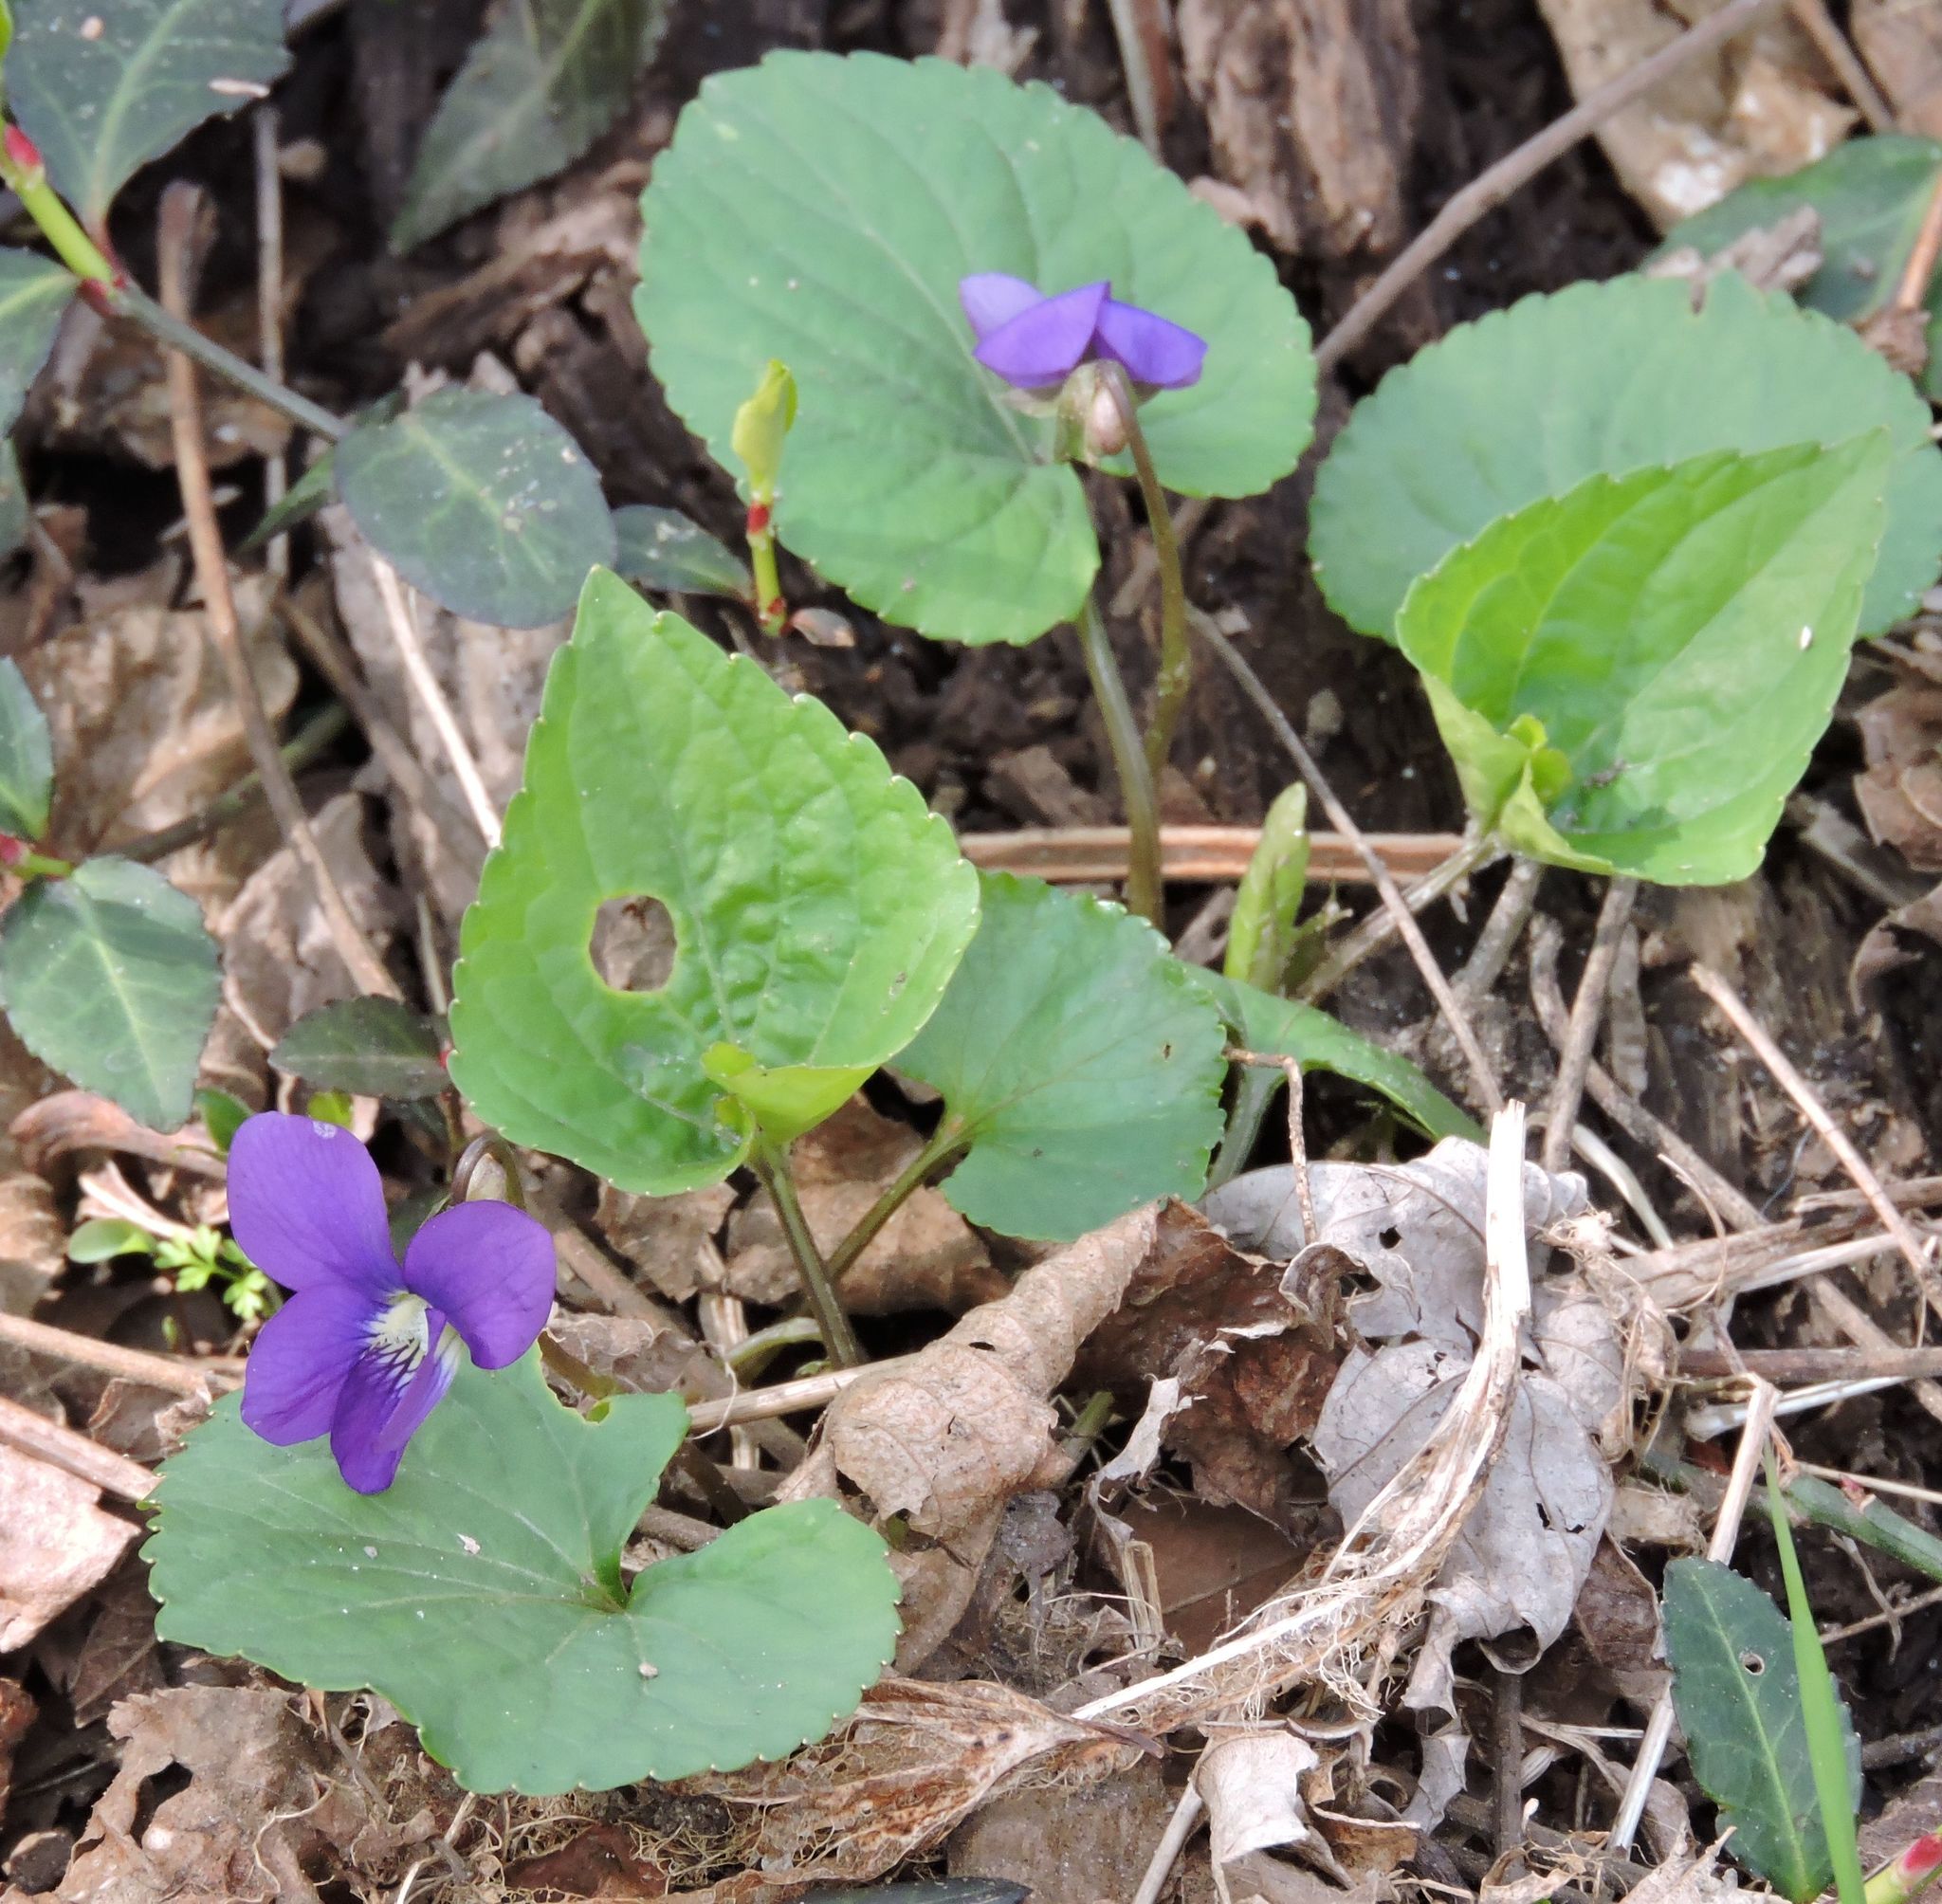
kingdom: Plantae
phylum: Tracheophyta
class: Magnoliopsida
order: Malpighiales
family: Violaceae
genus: Viola
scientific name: Viola sororia
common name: Dooryard violet
